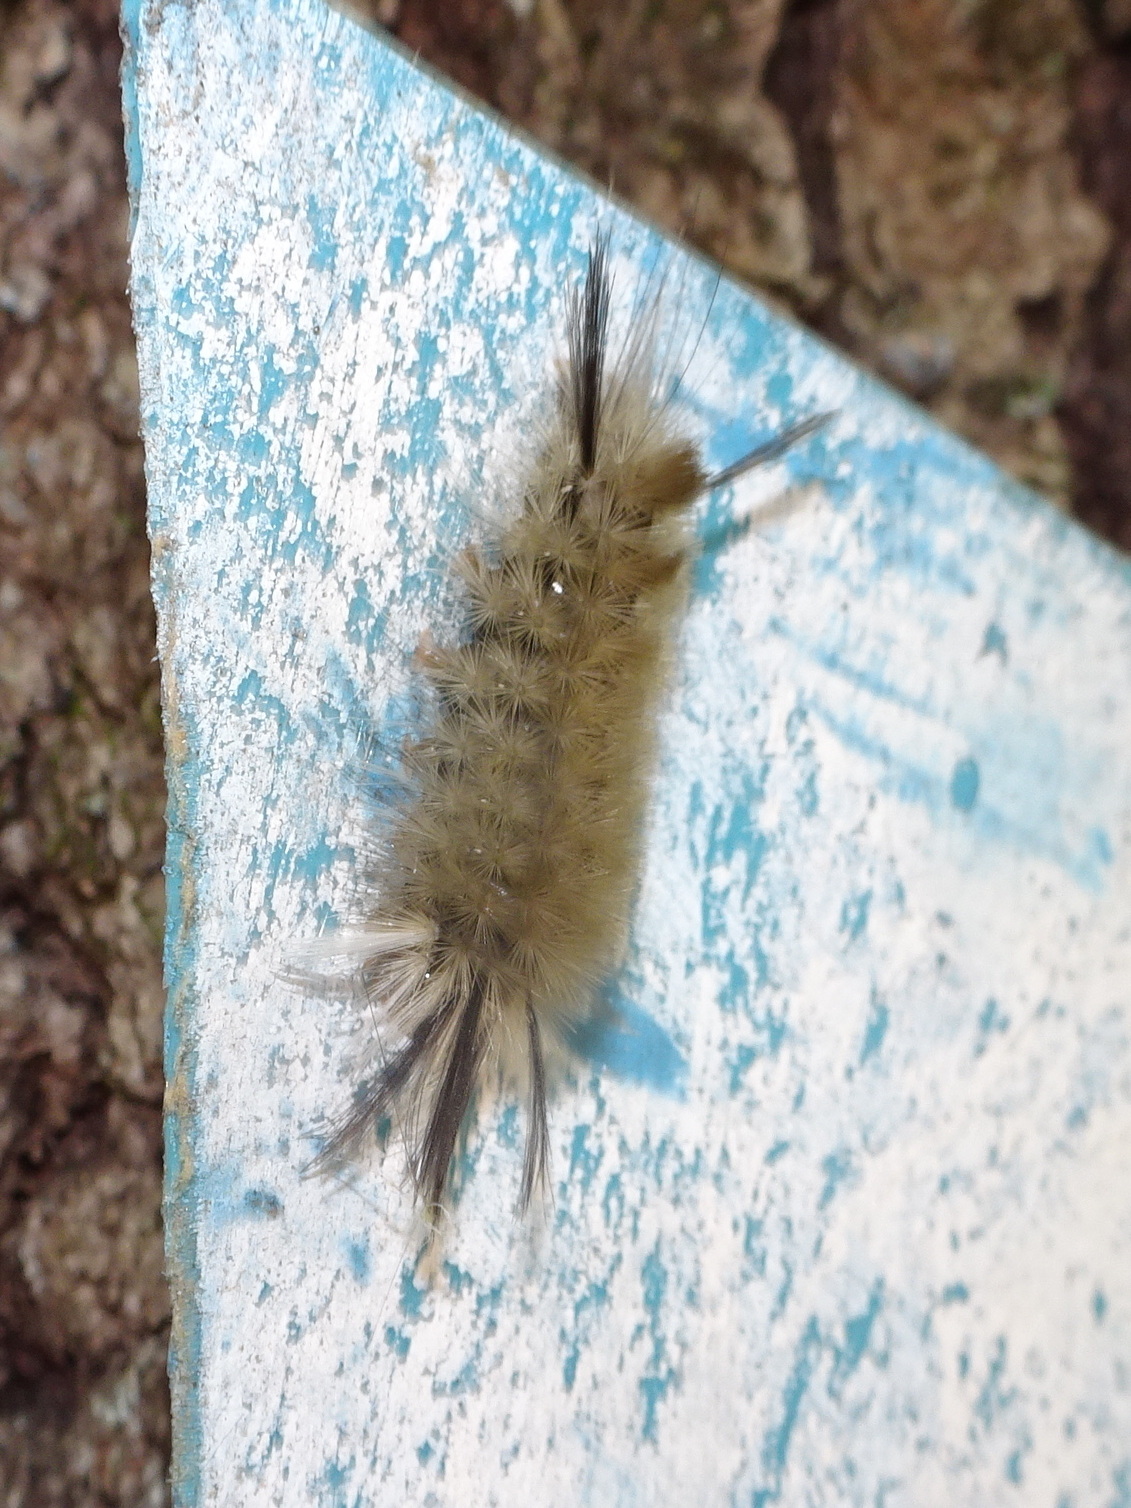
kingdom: Animalia
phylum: Arthropoda
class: Insecta
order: Lepidoptera
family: Erebidae
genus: Halysidota
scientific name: Halysidota tessellaris
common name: Banded tussock moth
